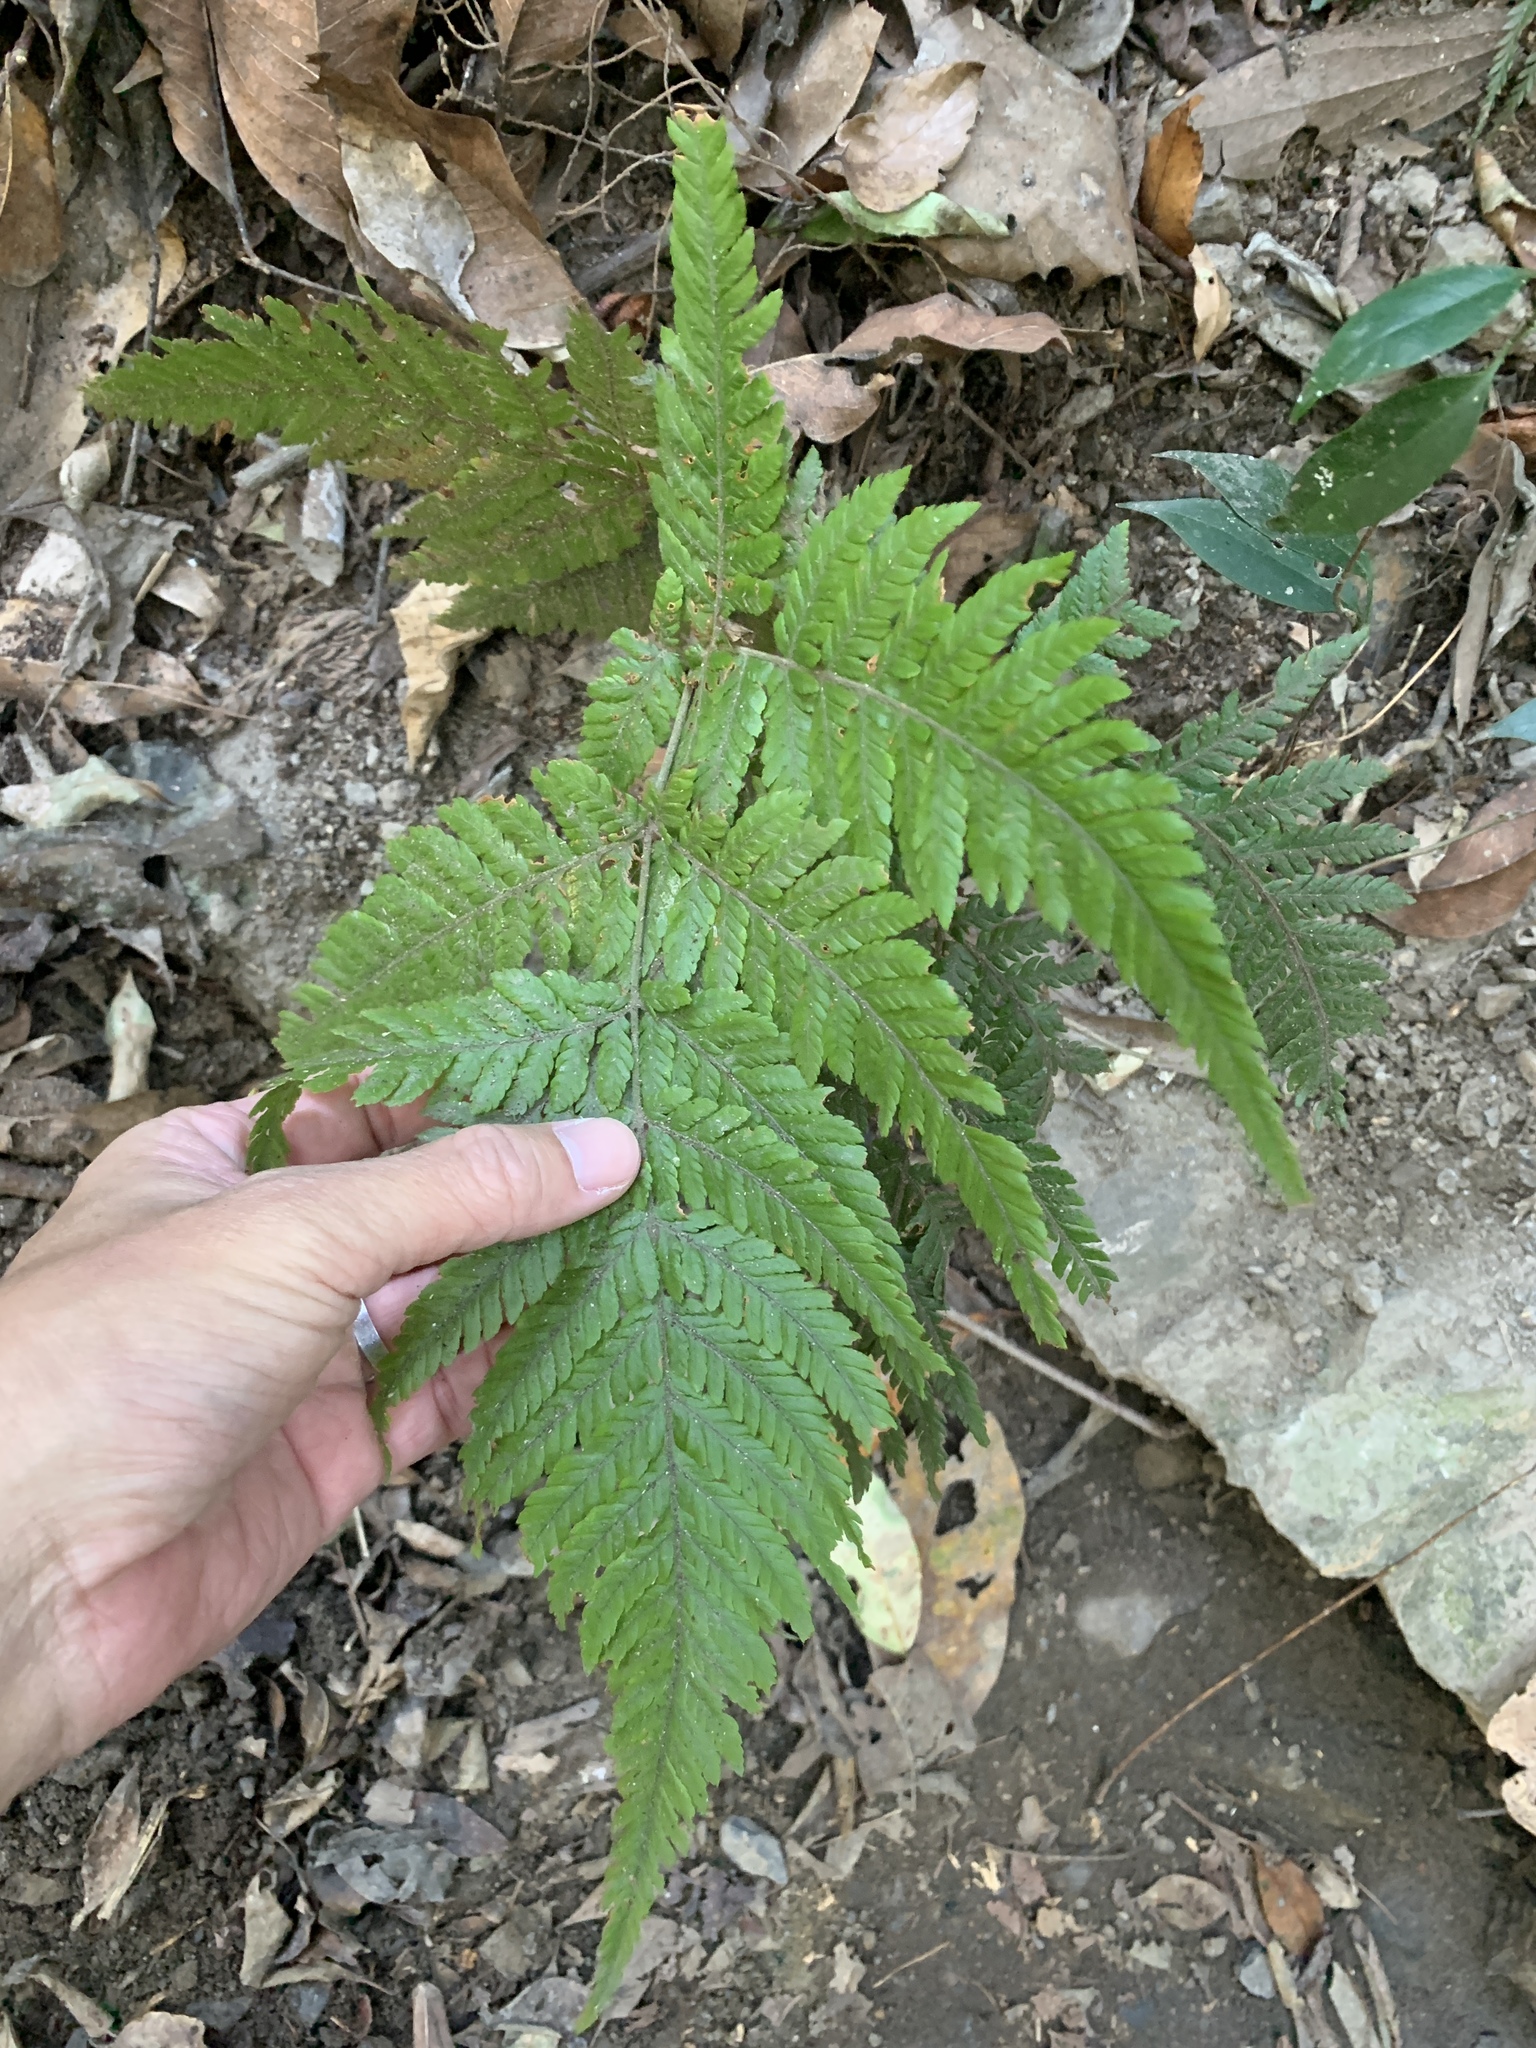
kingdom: Plantae
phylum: Tracheophyta
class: Polypodiopsida
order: Polypodiales
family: Dryopteridaceae
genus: Ctenitis
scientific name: Ctenitis subglandulosa
